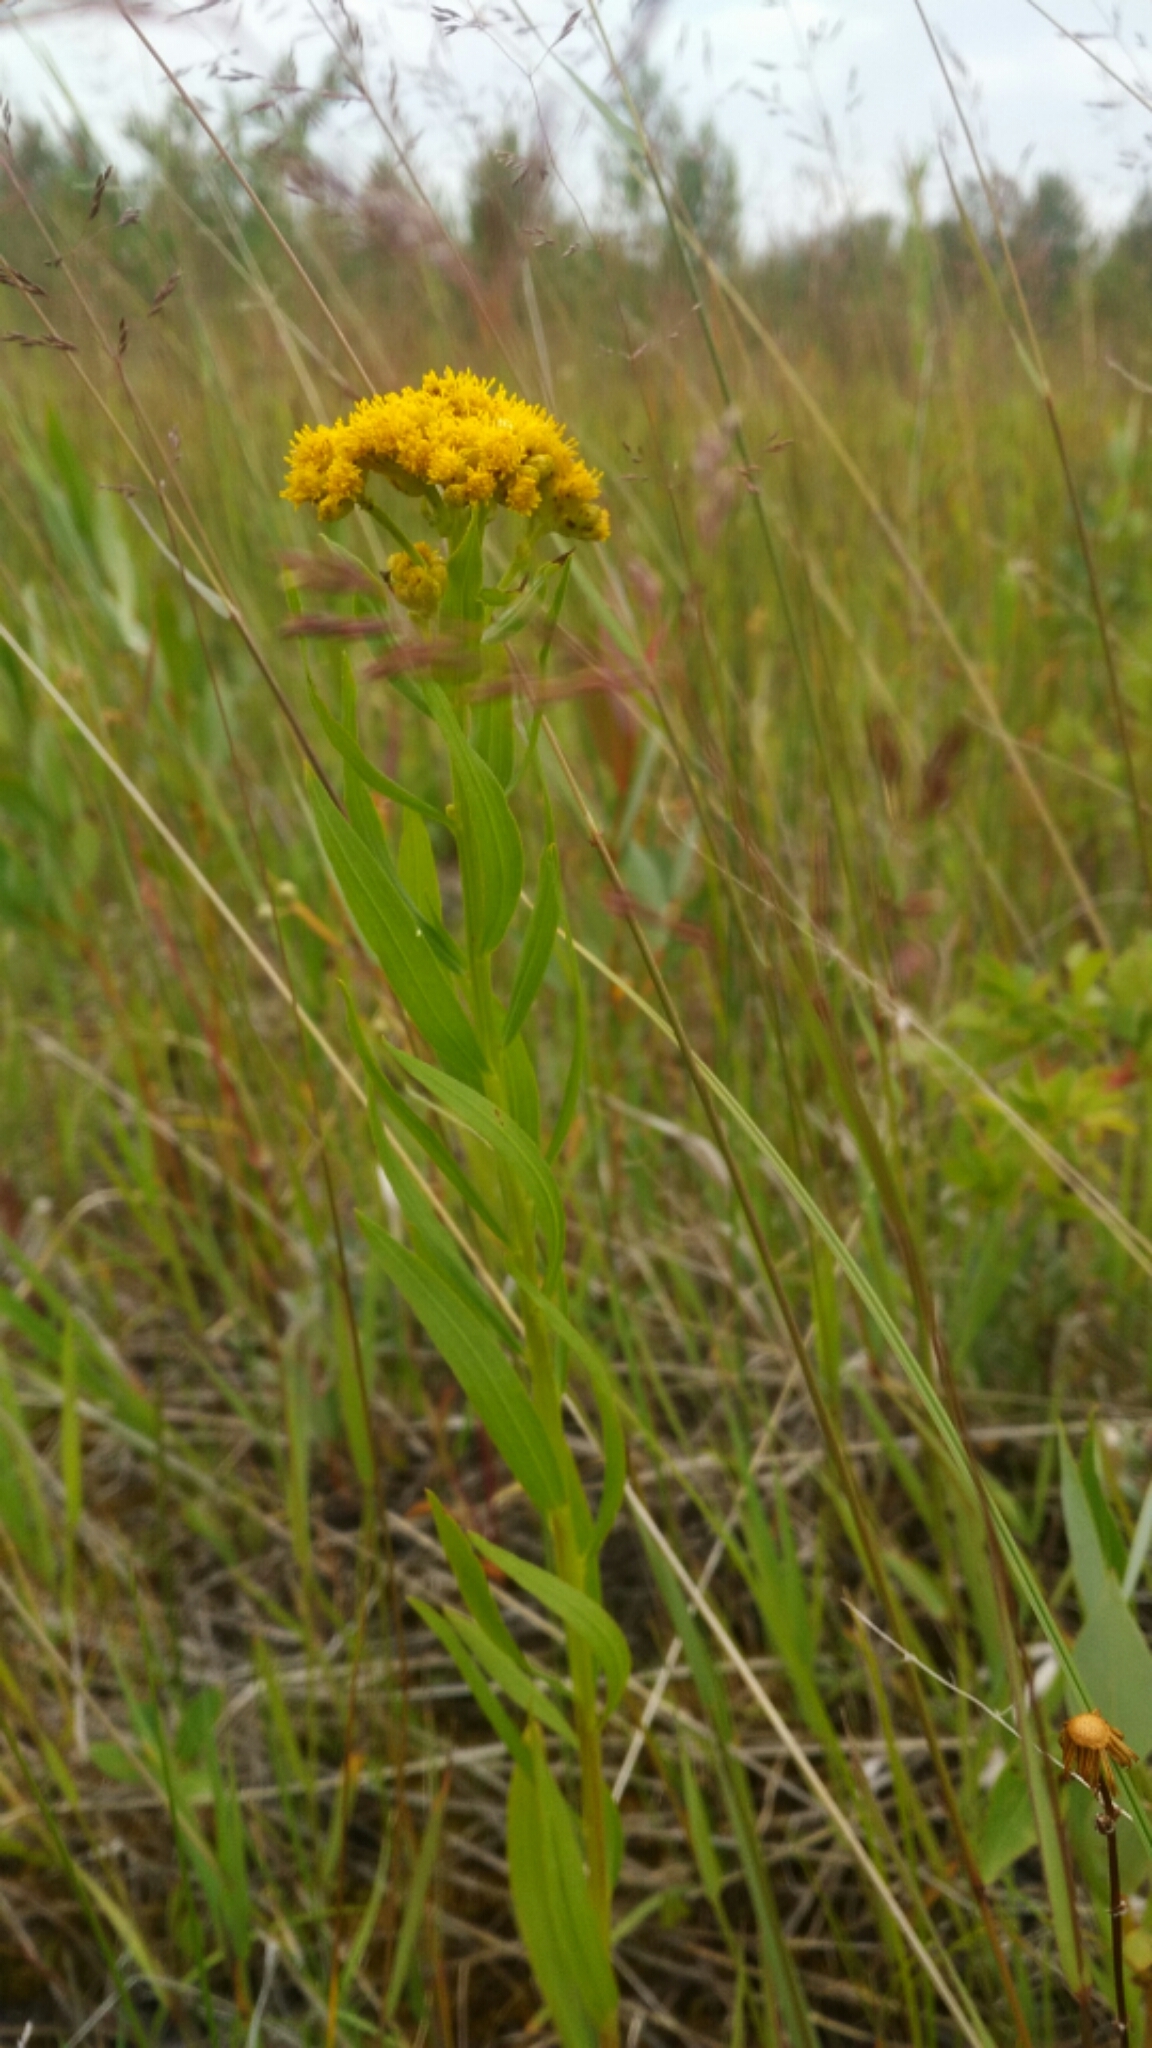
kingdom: Plantae
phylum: Tracheophyta
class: Magnoliopsida
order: Asterales
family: Asteraceae
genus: Solidago
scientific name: Solidago rigida
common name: Rigid goldenrod
